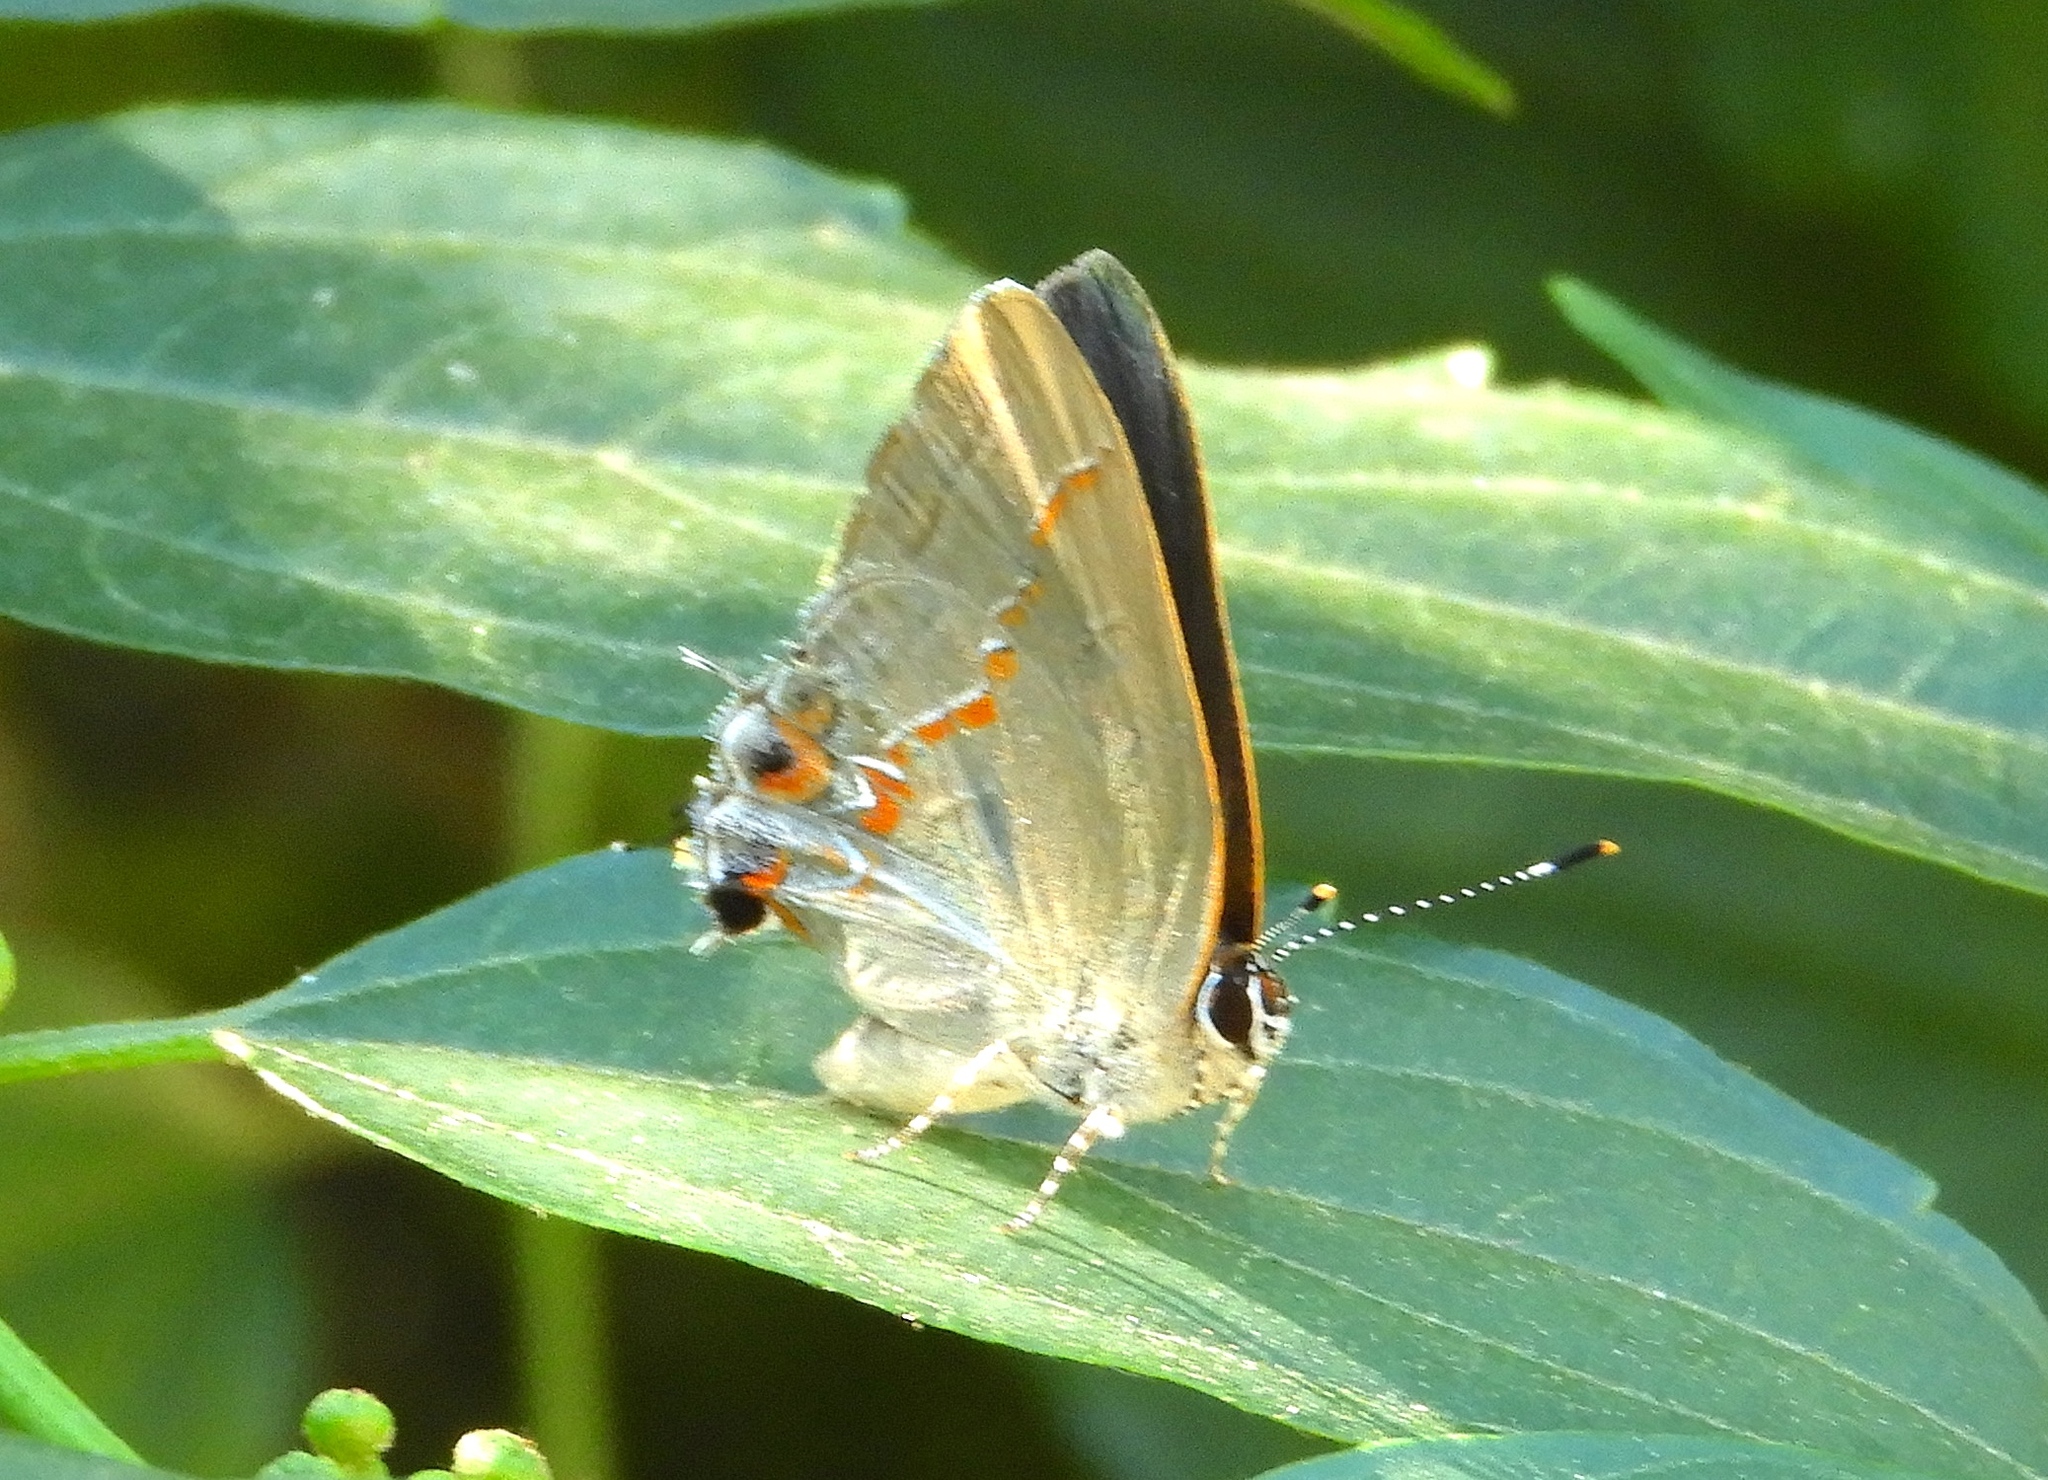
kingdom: Animalia
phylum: Arthropoda
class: Insecta
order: Lepidoptera
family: Lycaenidae
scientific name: Lycaenidae
